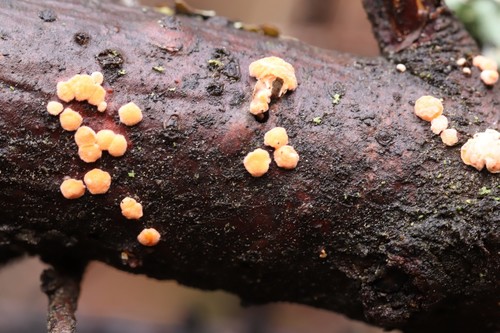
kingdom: Fungi
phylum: Basidiomycota
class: Agaricomycetes
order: Russulales
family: Stereaceae
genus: Aleurodiscus
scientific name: Aleurodiscus amorphus
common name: Orange discus
